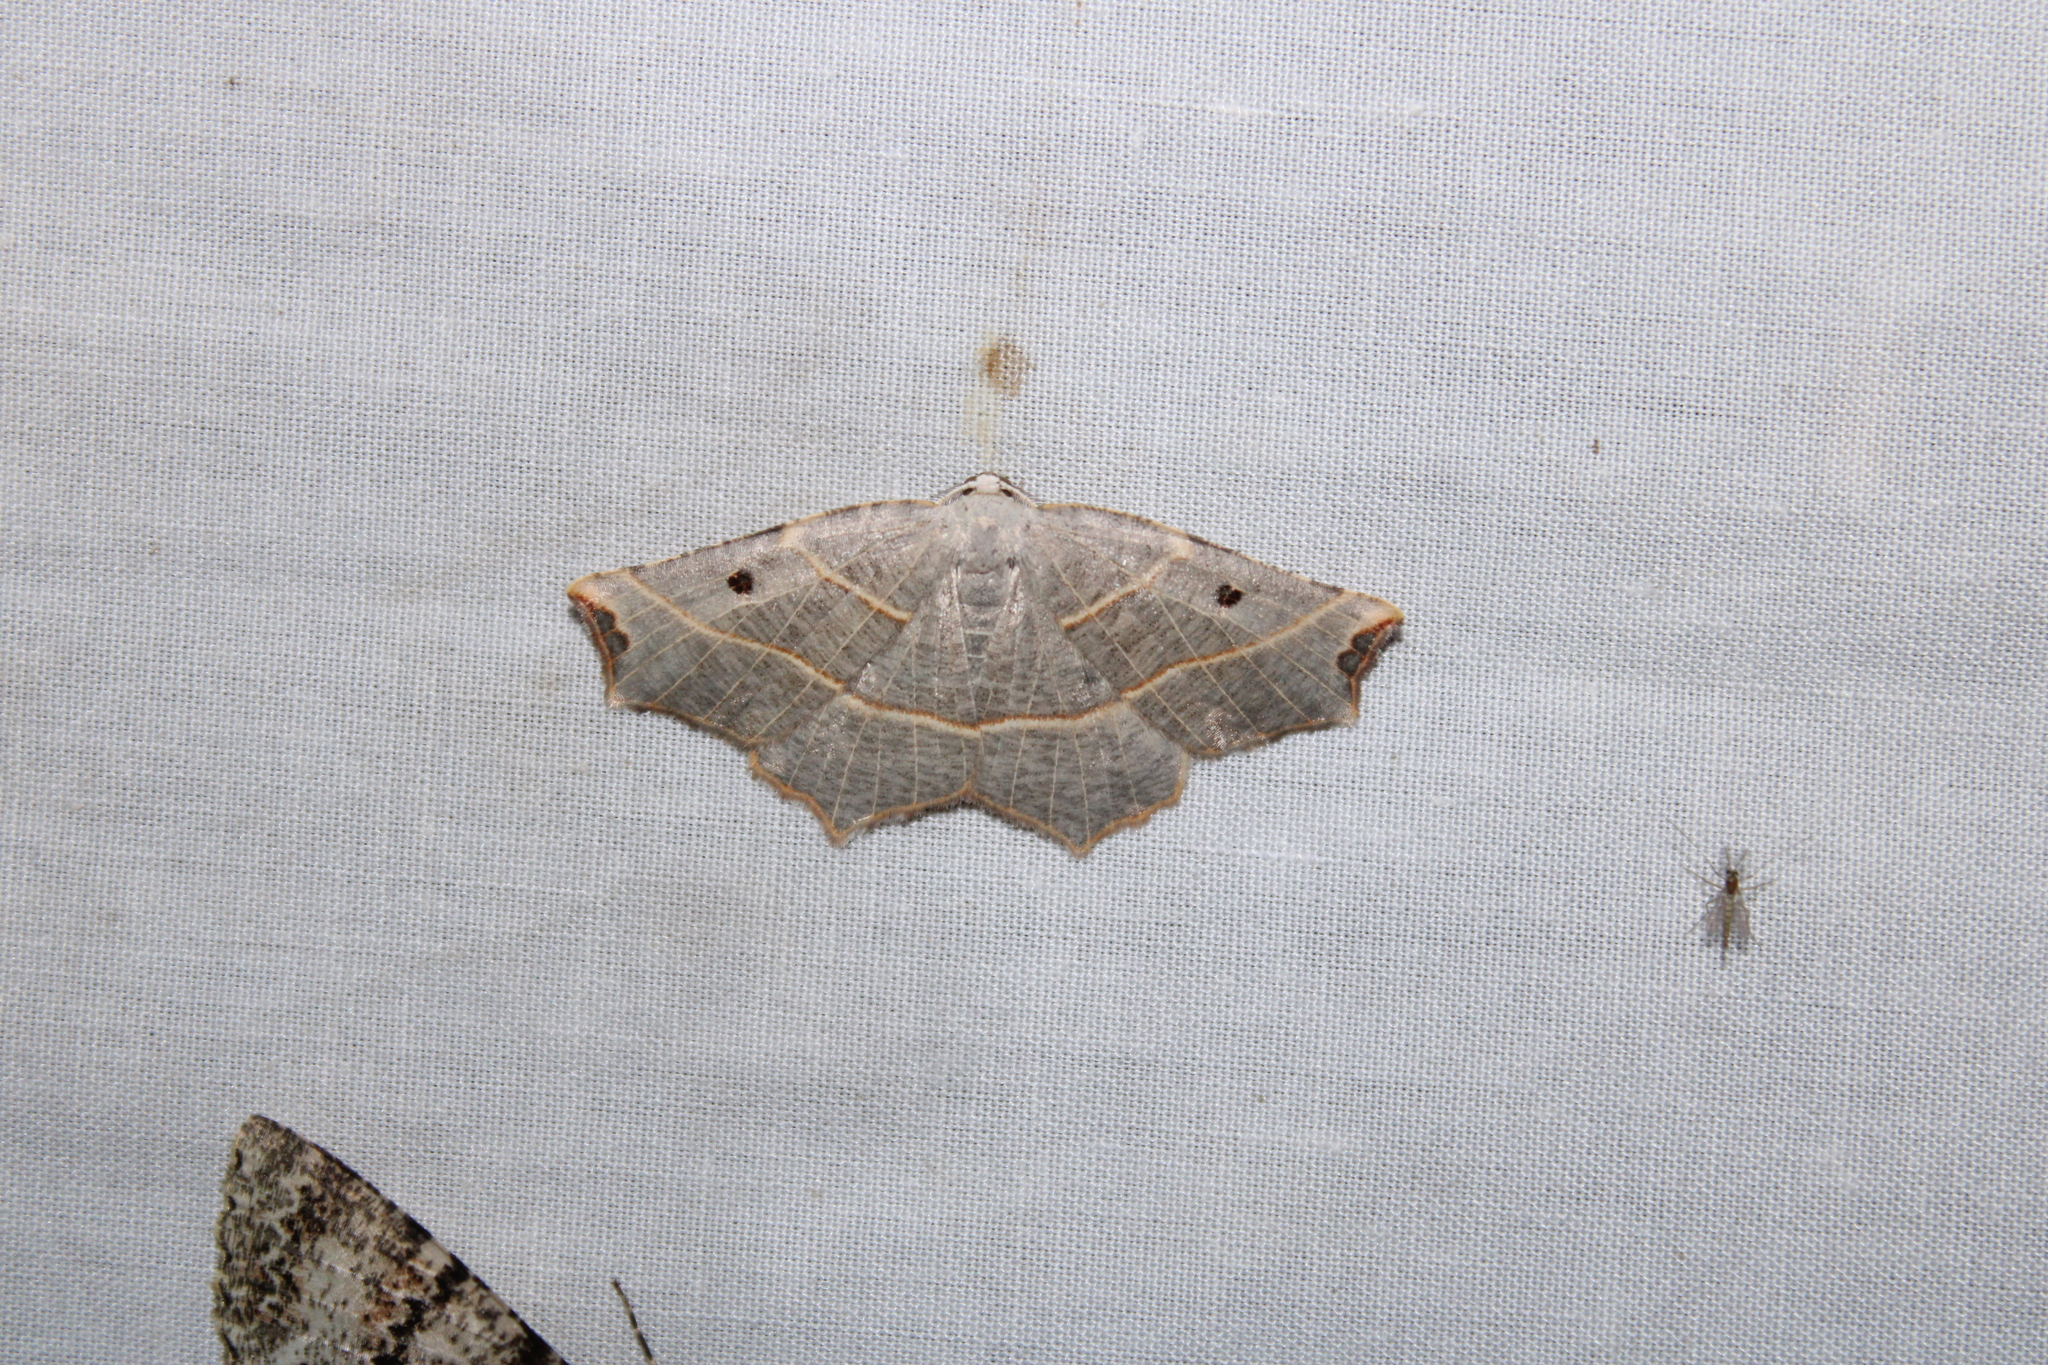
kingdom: Animalia
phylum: Arthropoda
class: Insecta
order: Lepidoptera
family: Geometridae
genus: Metanema
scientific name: Metanema inatomaria
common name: Pale metanema
